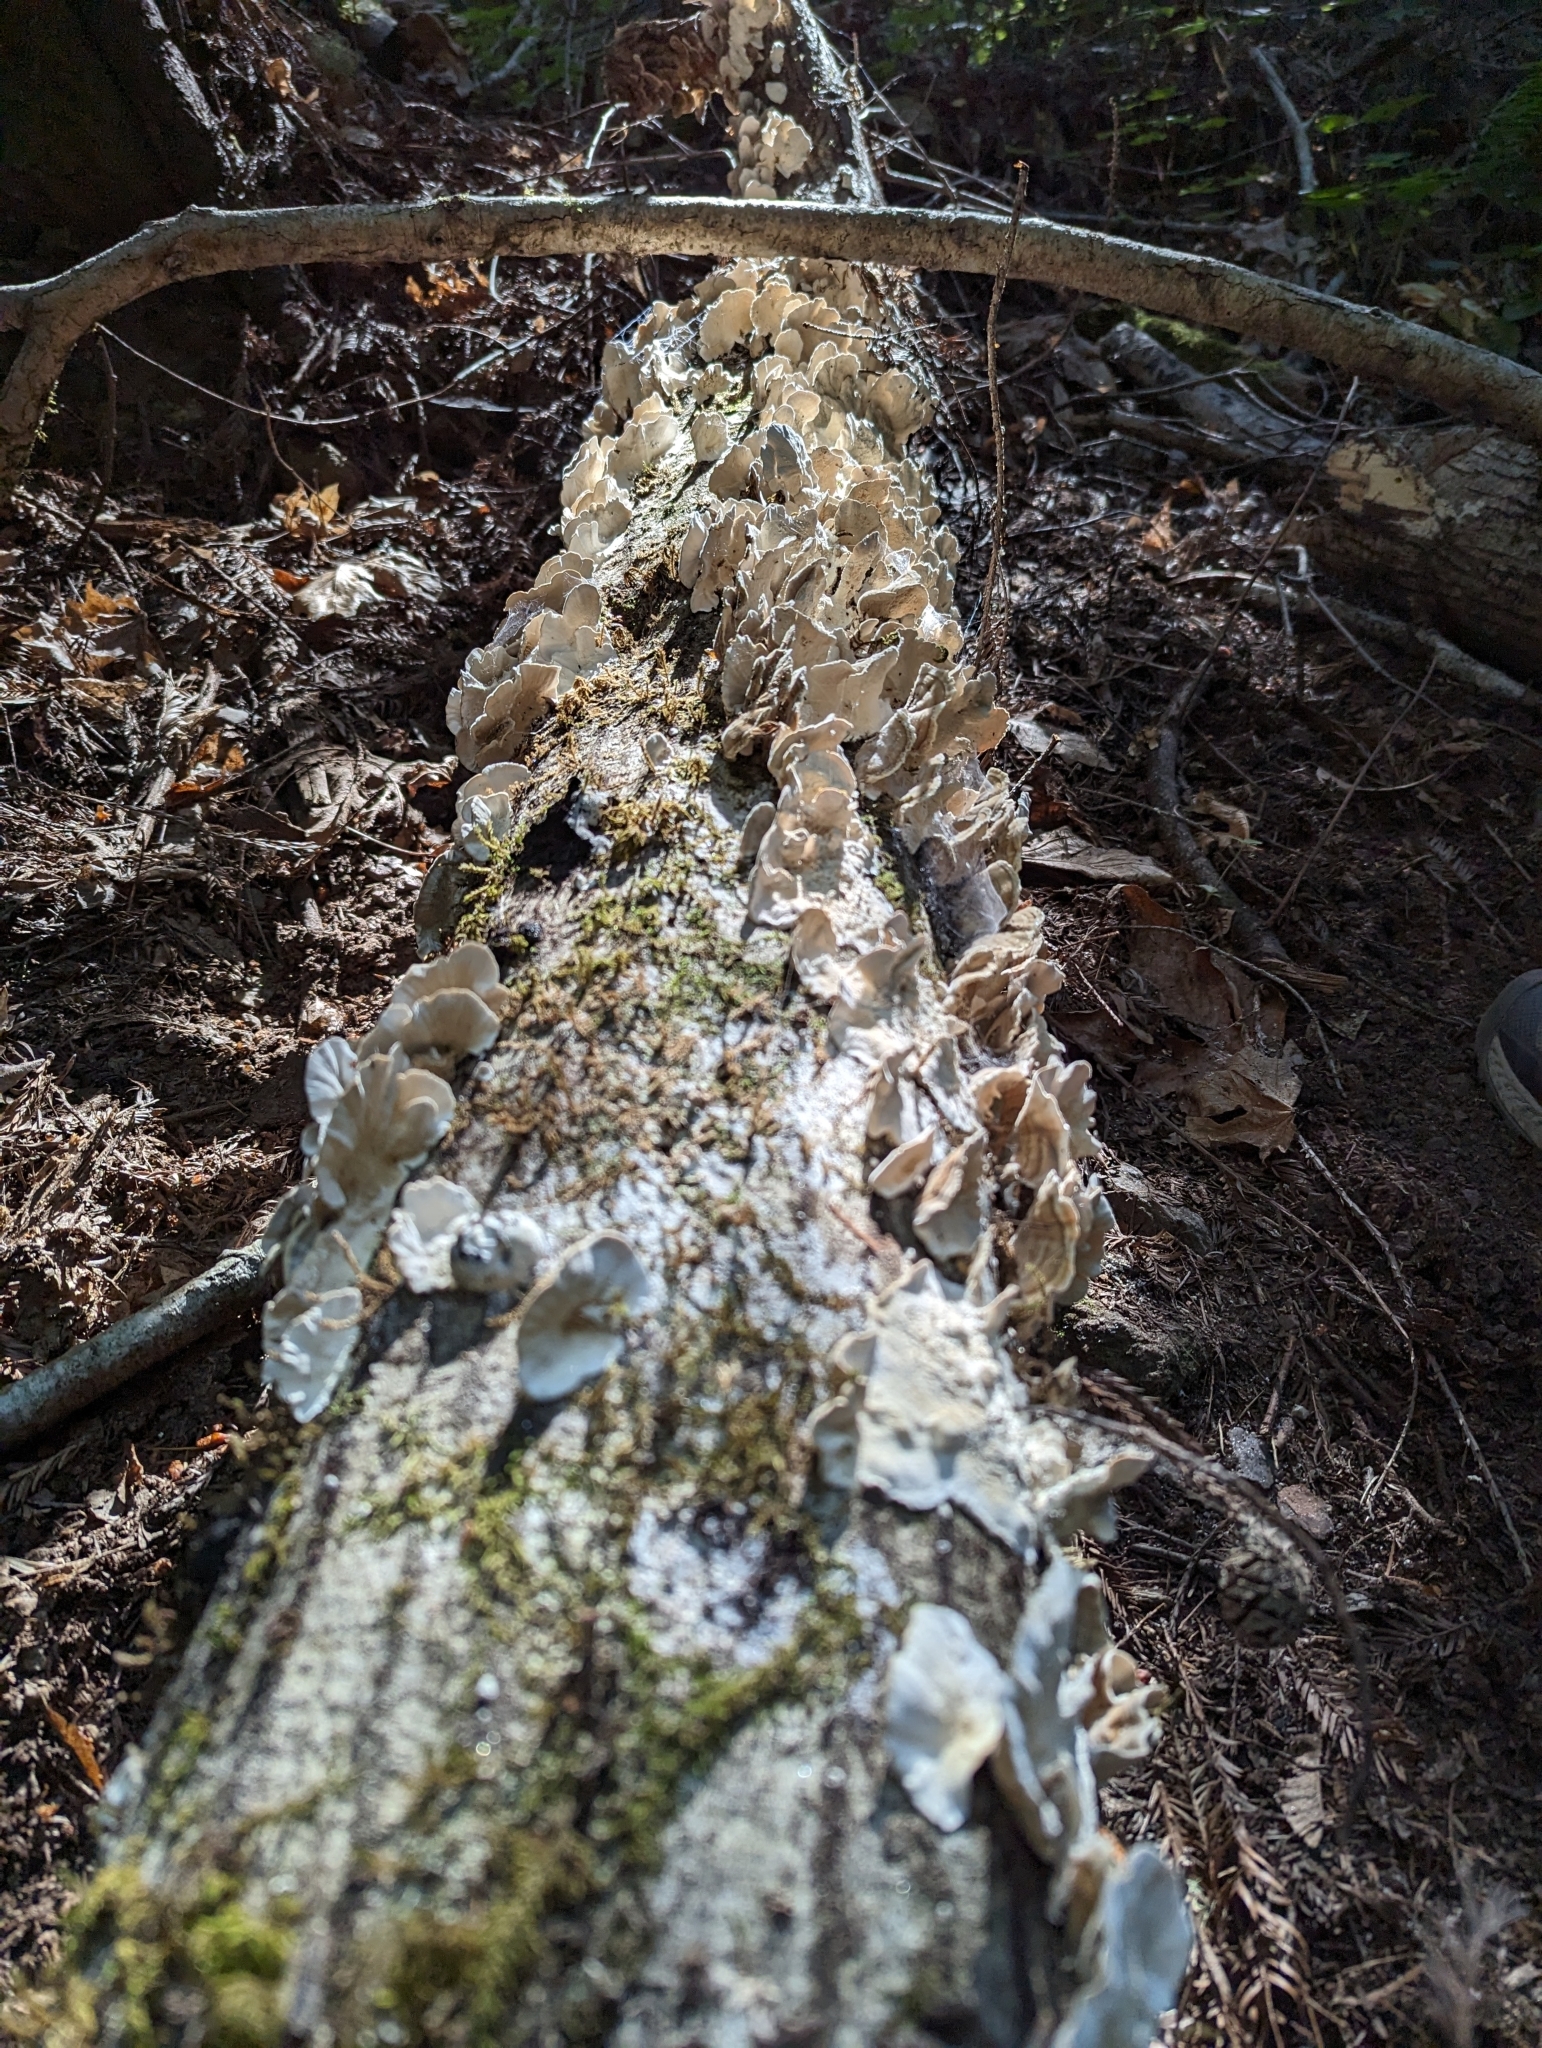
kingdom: Fungi
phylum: Basidiomycota
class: Agaricomycetes
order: Polyporales
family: Polyporaceae
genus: Trametes
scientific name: Trametes versicolor
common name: Turkeytail
